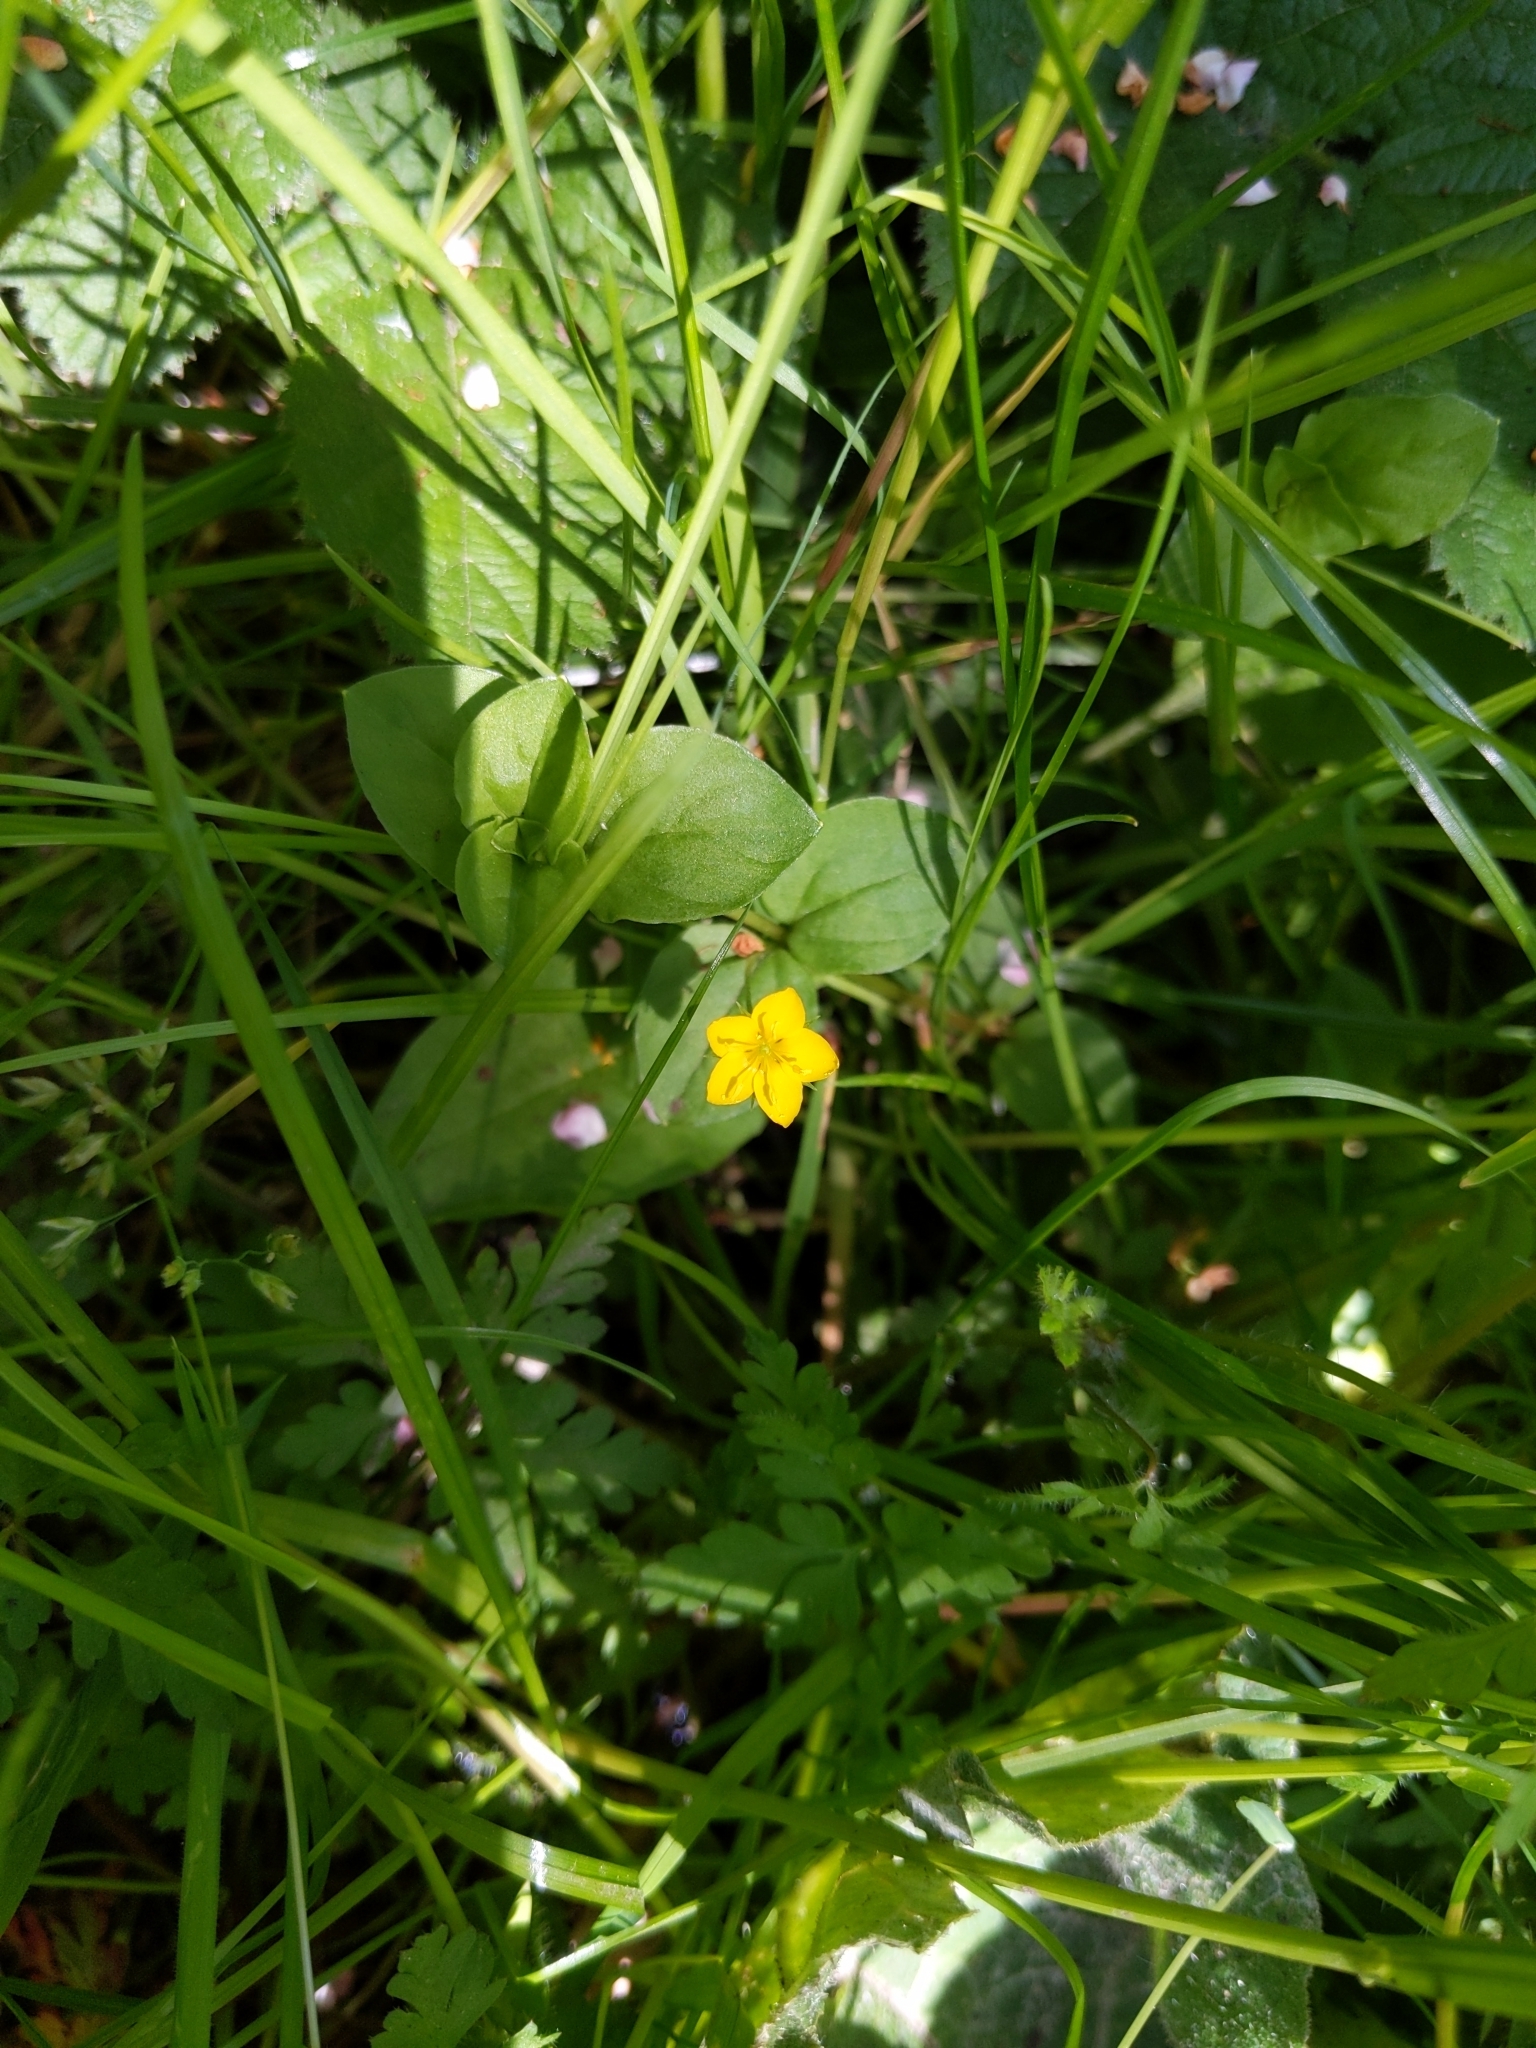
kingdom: Plantae
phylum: Tracheophyta
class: Magnoliopsida
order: Ericales
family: Primulaceae
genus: Lysimachia
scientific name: Lysimachia nemorum
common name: Yellow pimpernel
